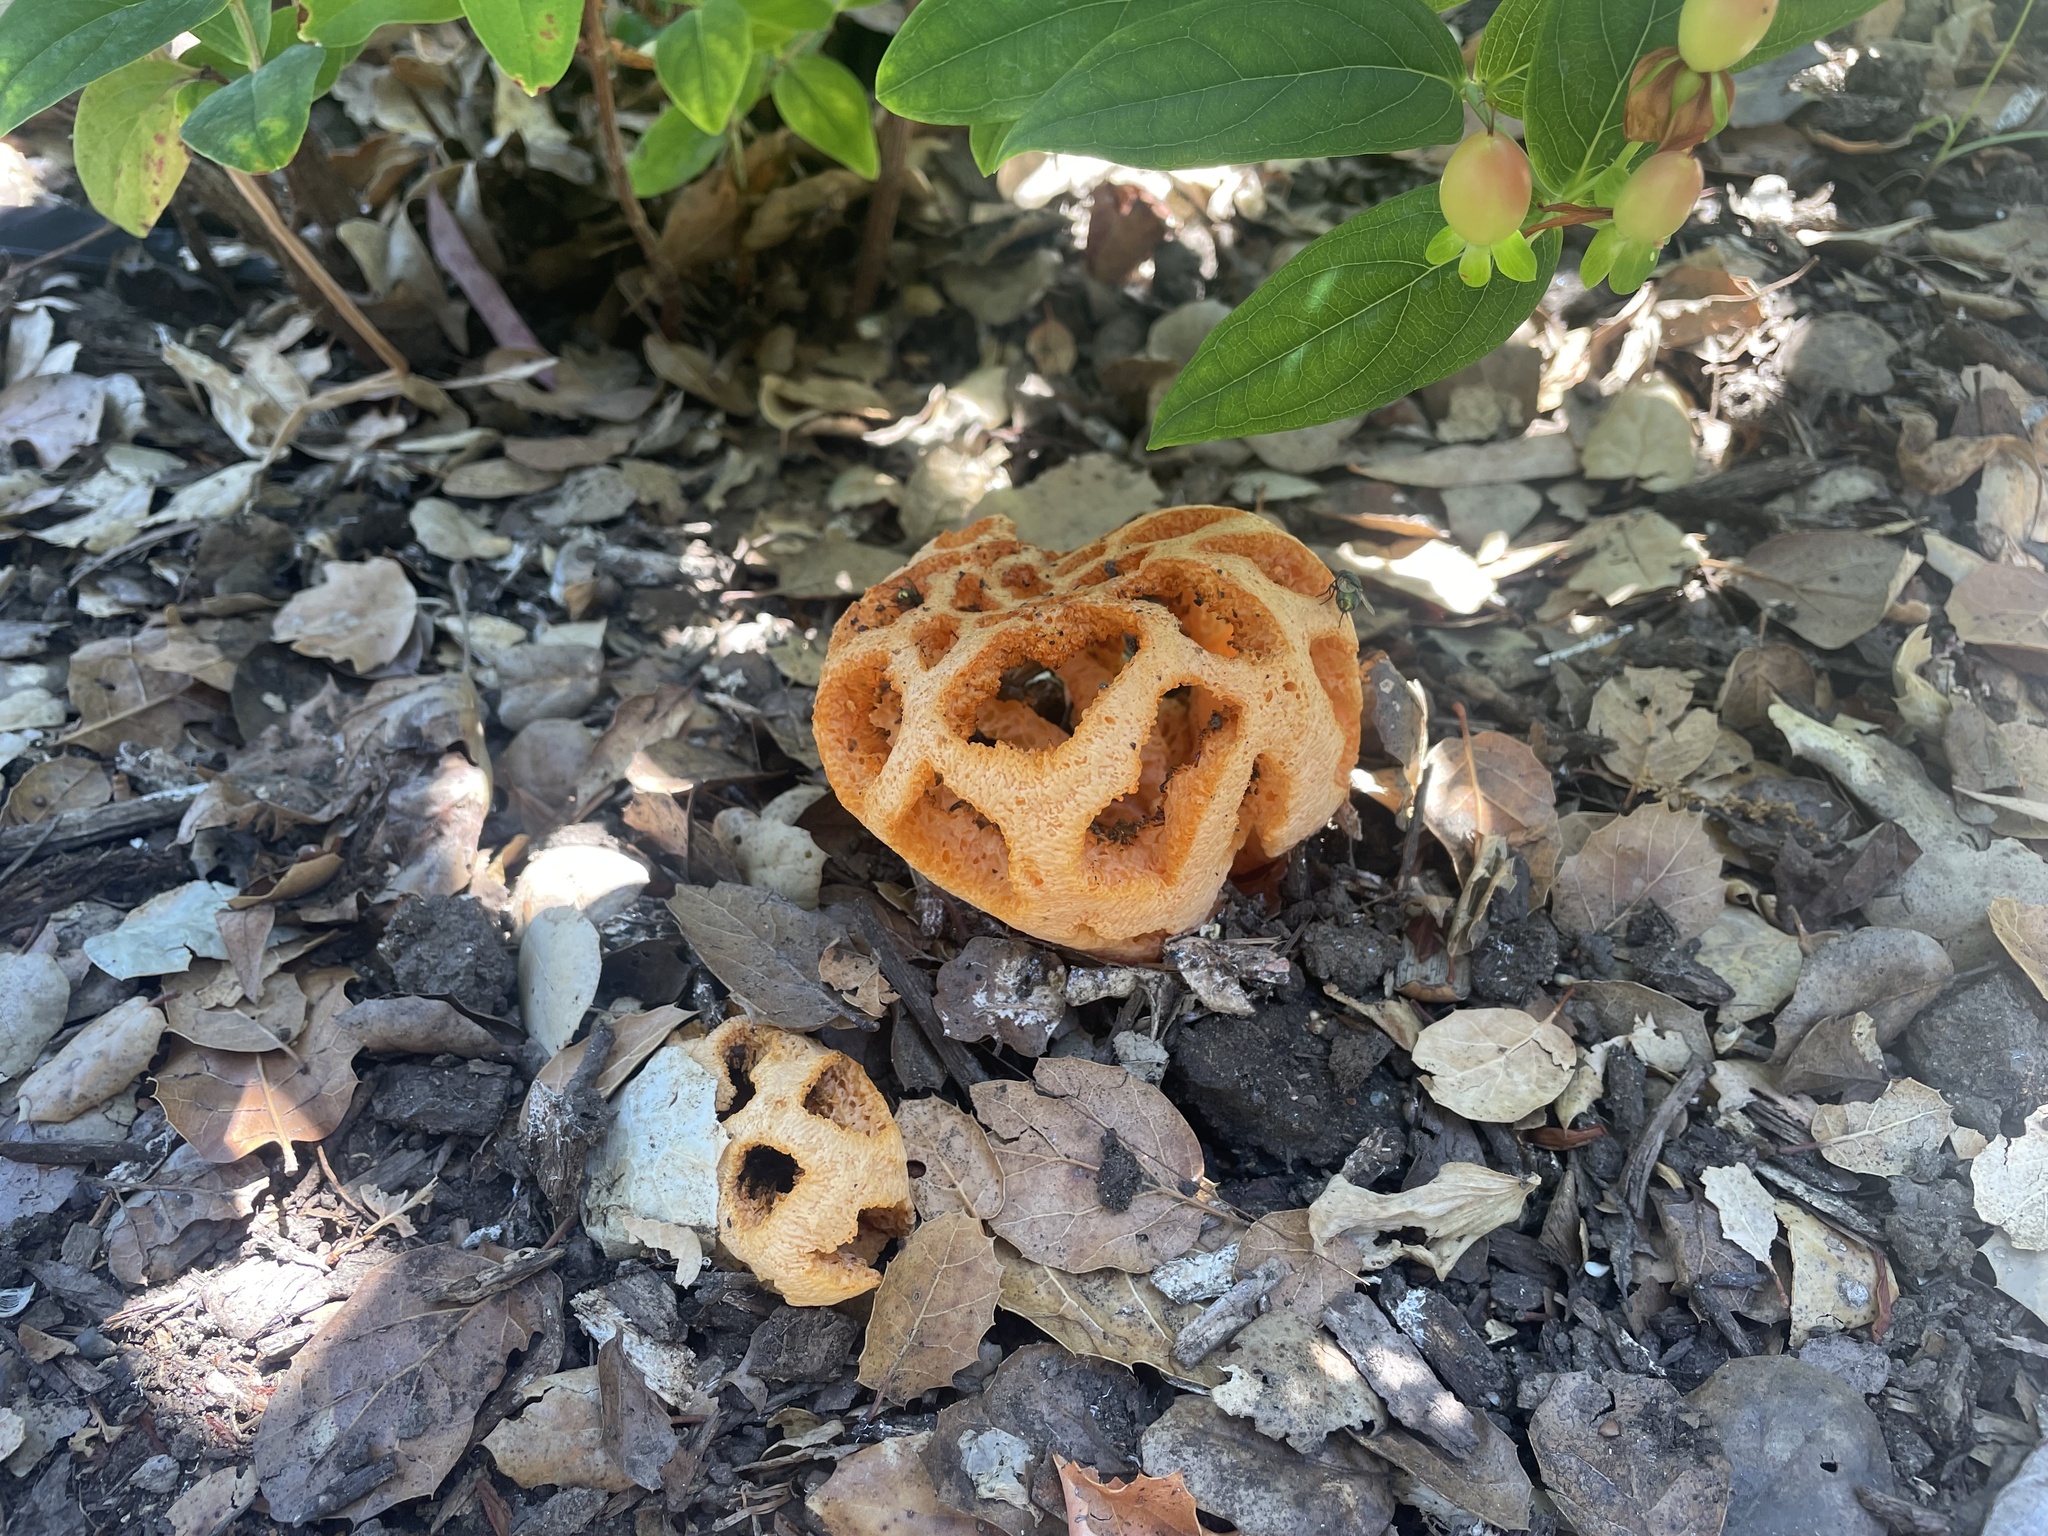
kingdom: Fungi
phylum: Basidiomycota
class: Agaricomycetes
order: Phallales
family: Phallaceae
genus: Clathrus
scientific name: Clathrus ruber
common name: Red cage
